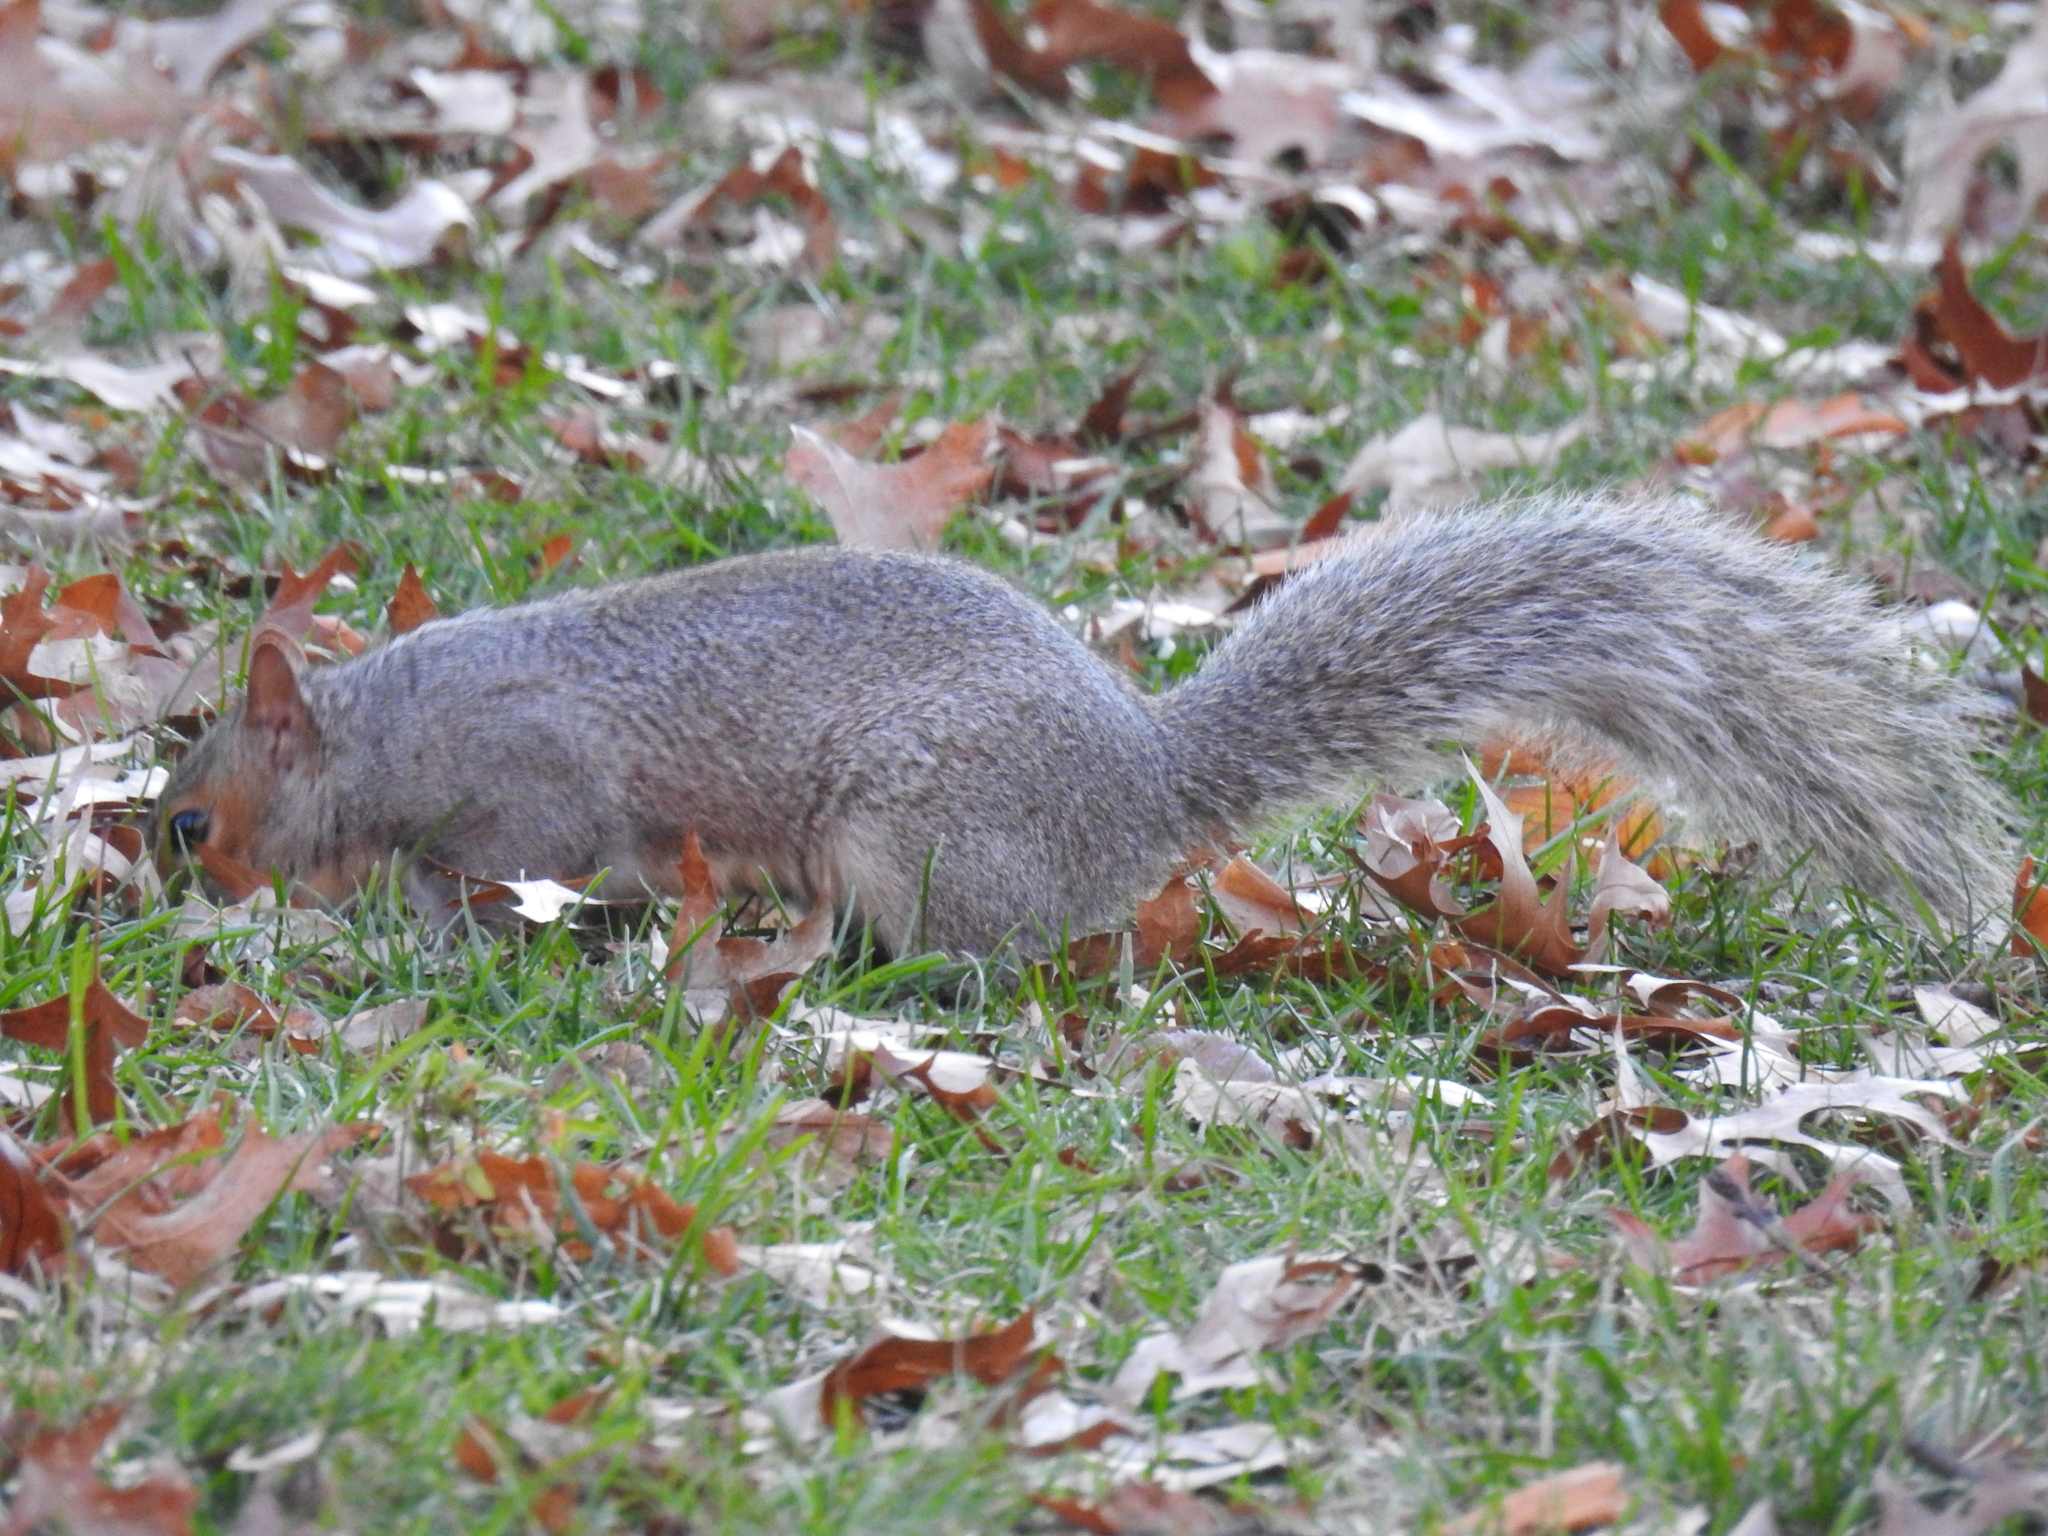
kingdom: Animalia
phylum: Chordata
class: Mammalia
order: Rodentia
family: Sciuridae
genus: Sciurus
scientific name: Sciurus carolinensis
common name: Eastern gray squirrel
